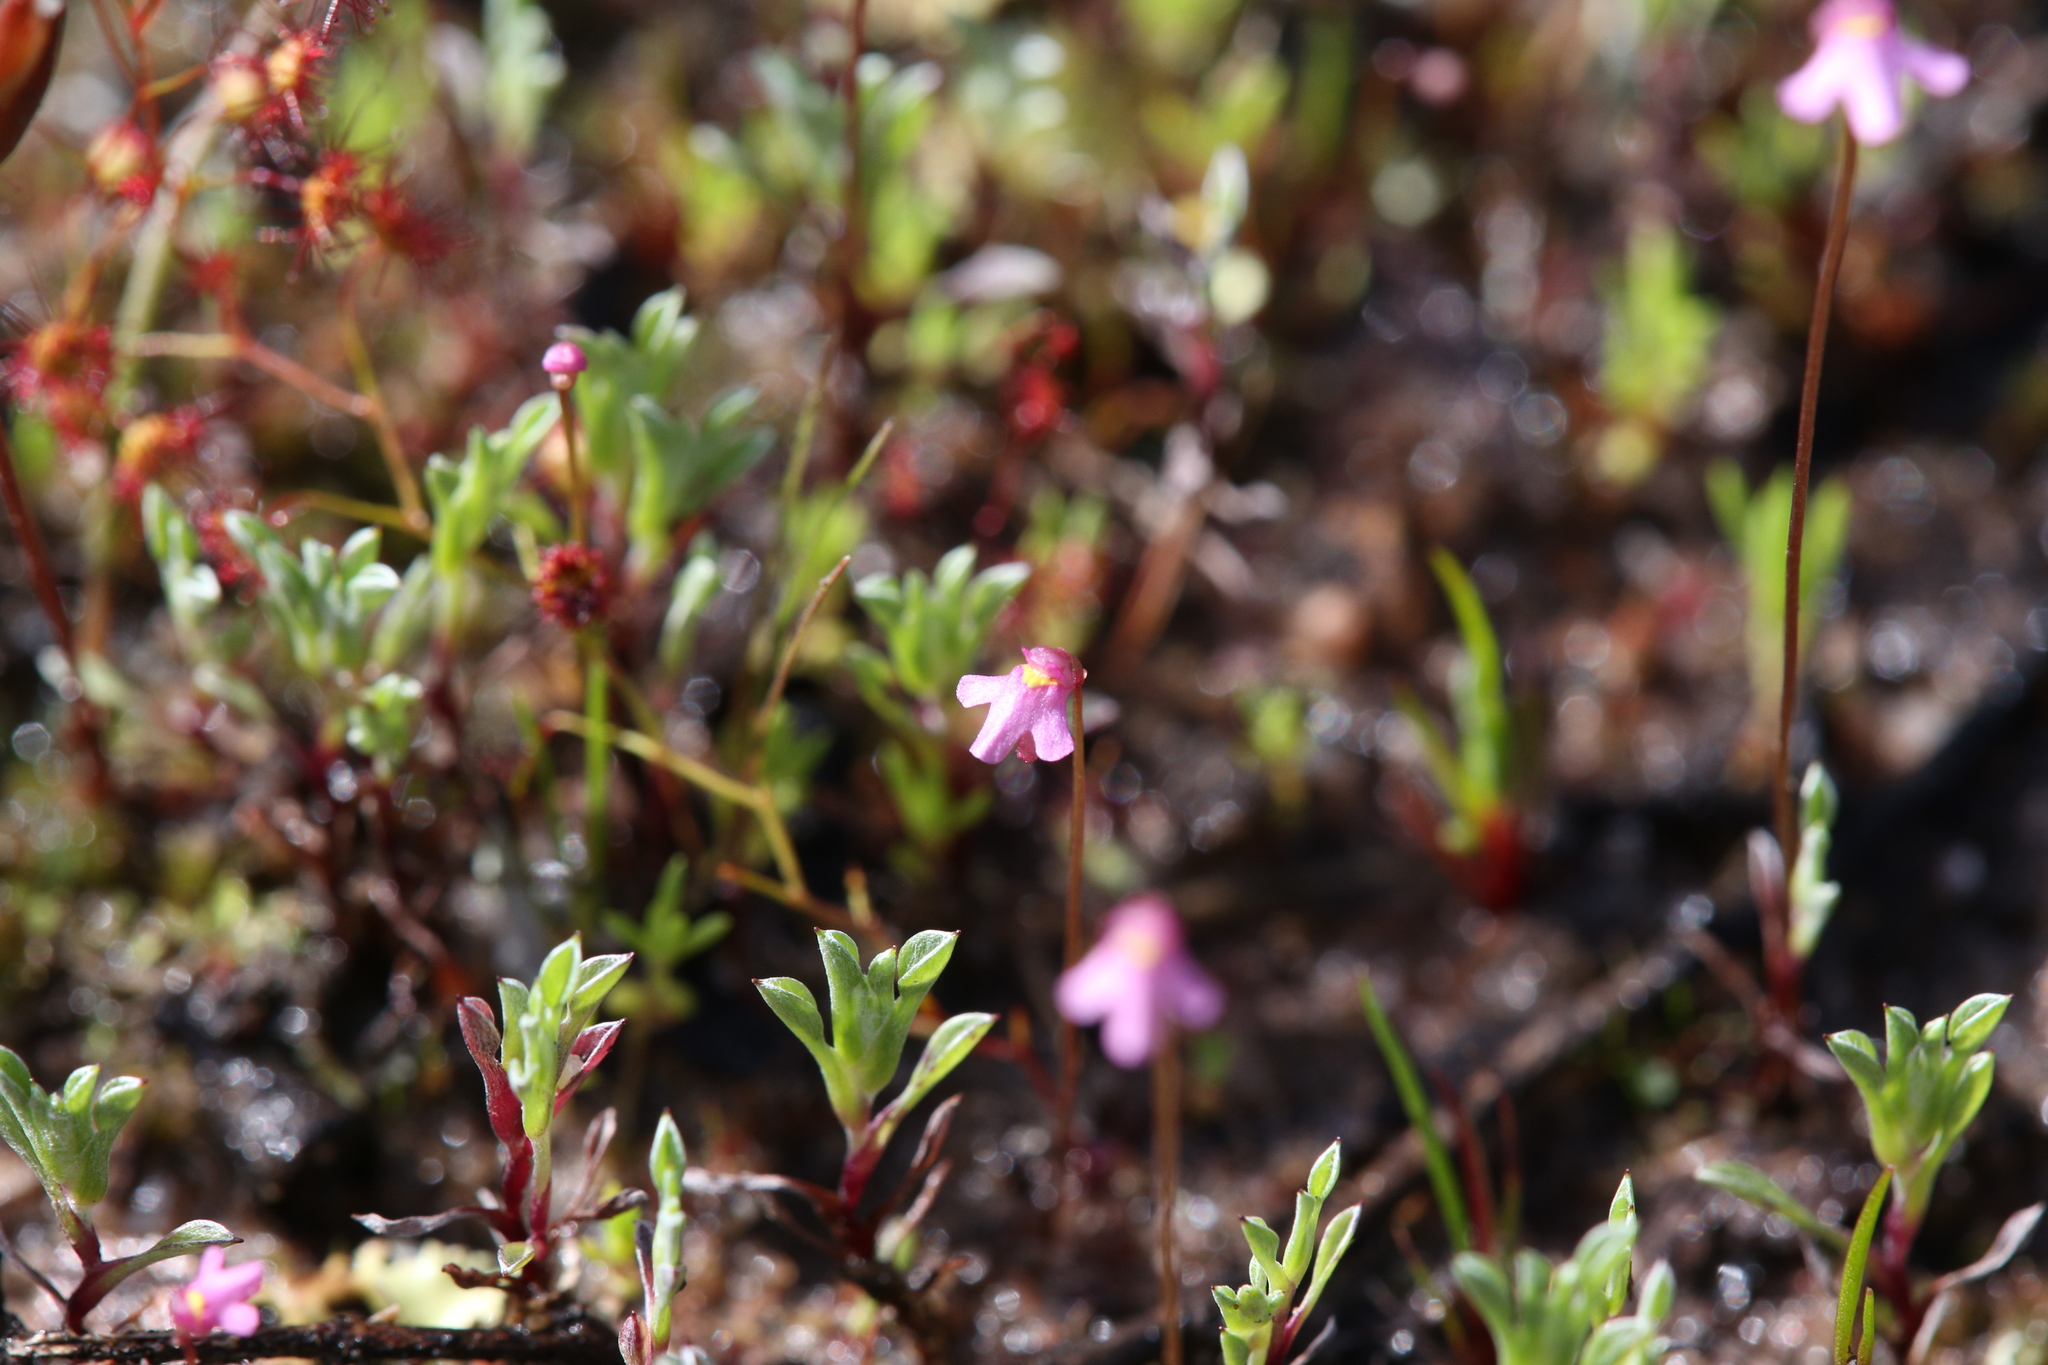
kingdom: Plantae
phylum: Tracheophyta
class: Magnoliopsida
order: Lamiales
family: Lentibulariaceae
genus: Utricularia
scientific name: Utricularia tenella
